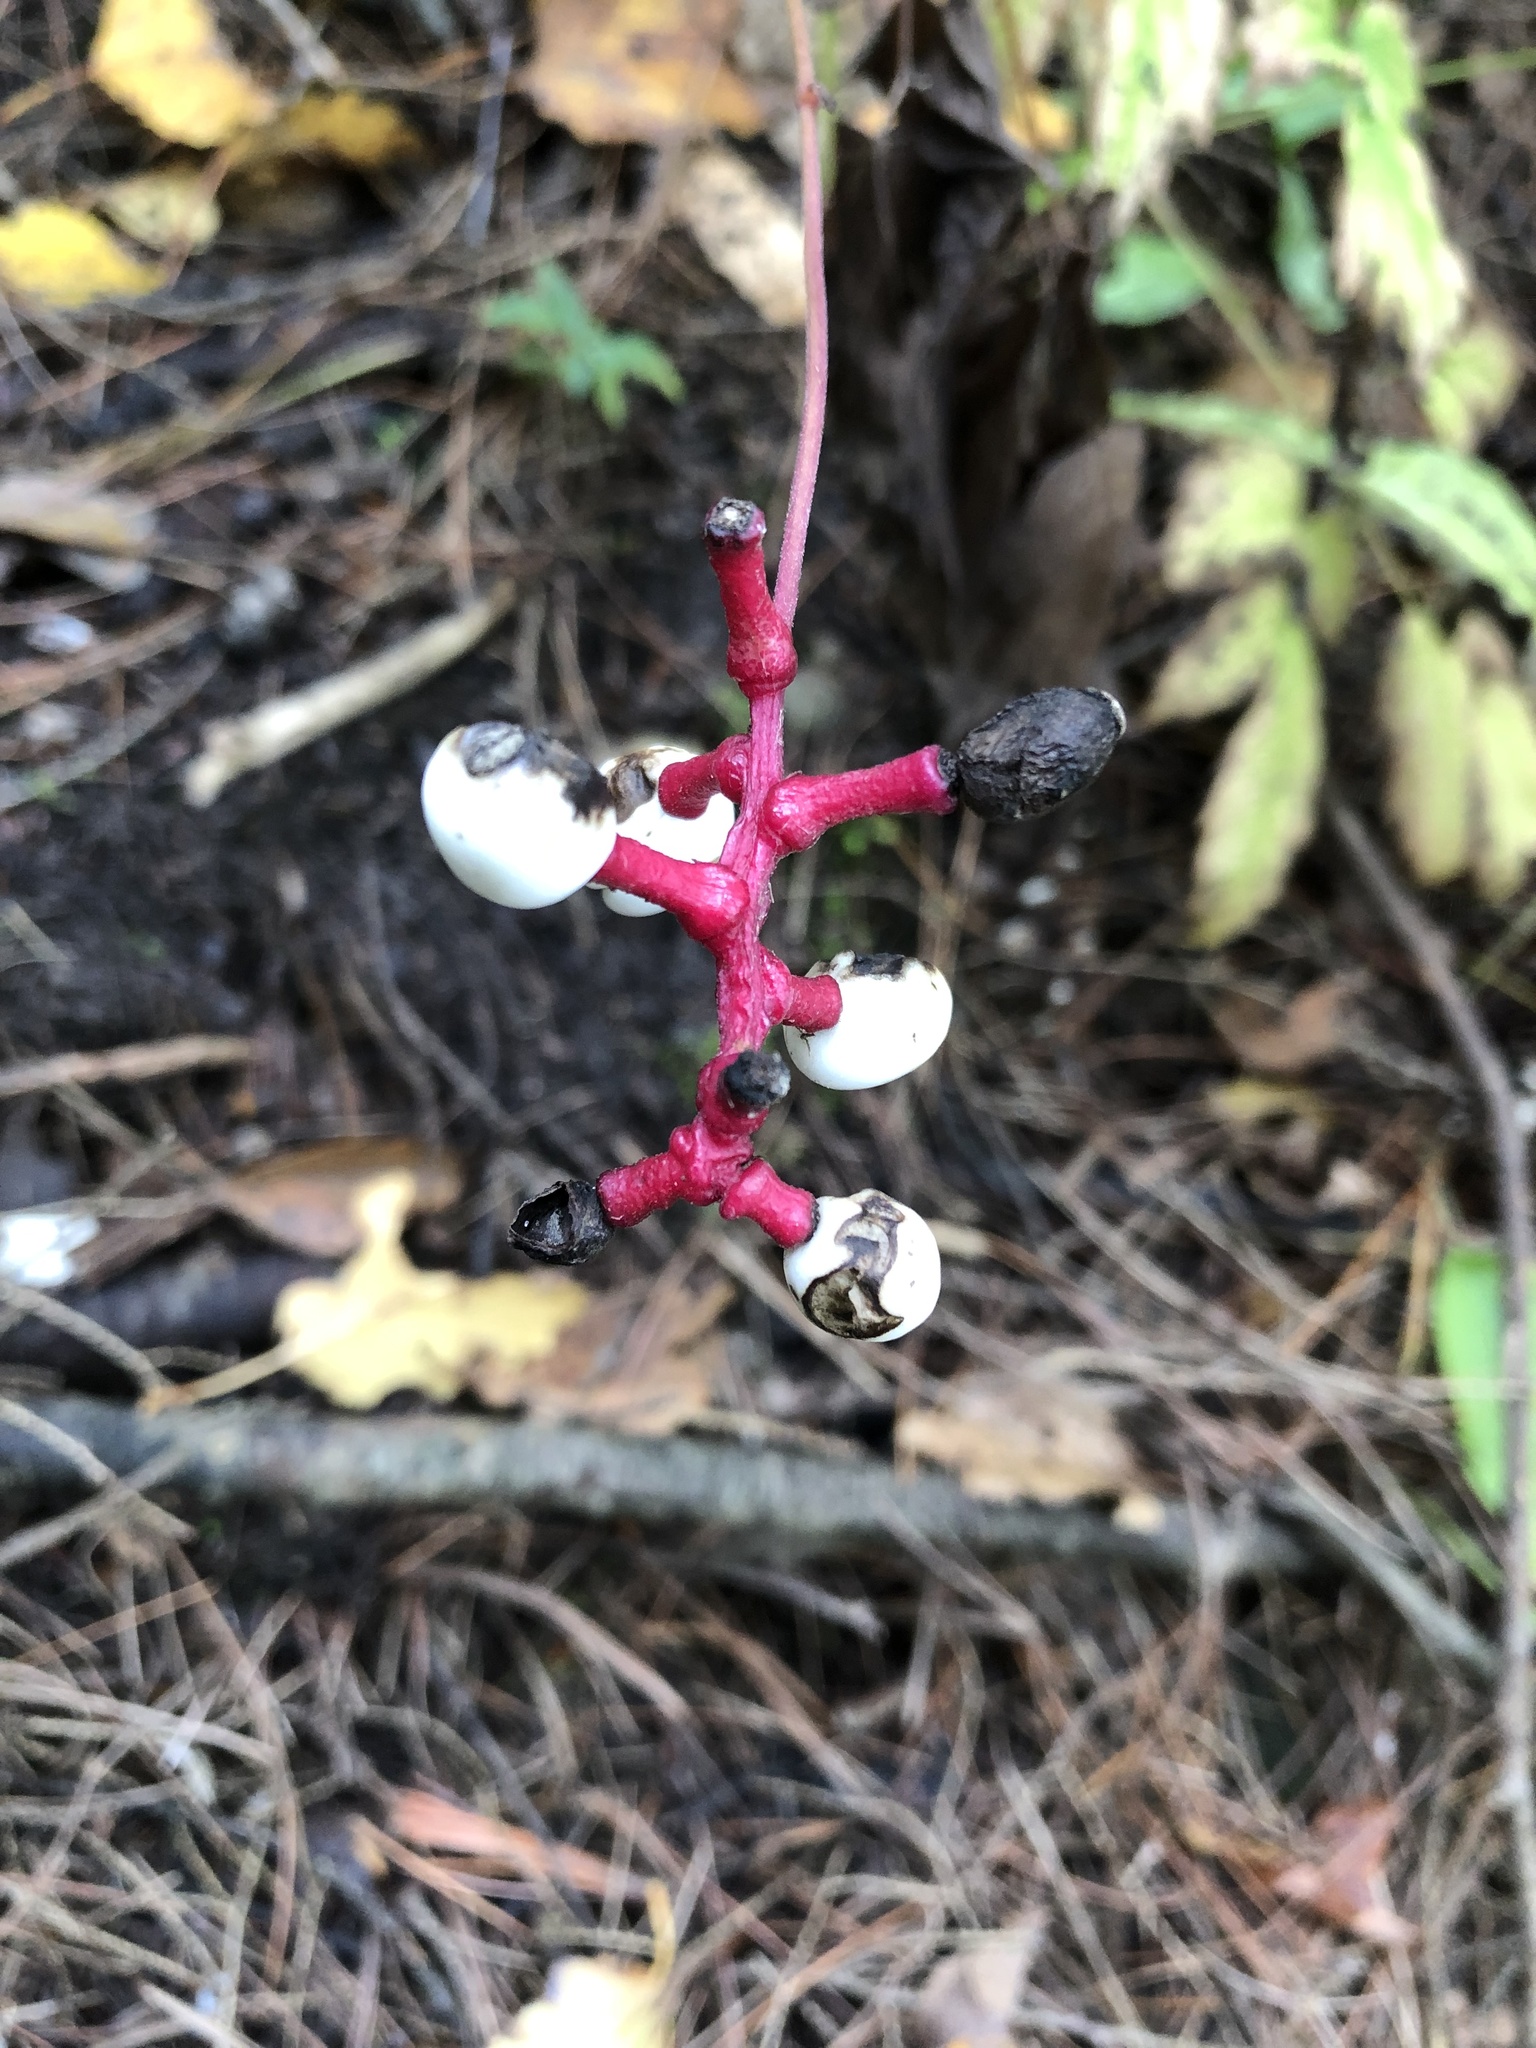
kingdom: Plantae
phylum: Tracheophyta
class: Magnoliopsida
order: Ranunculales
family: Ranunculaceae
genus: Actaea
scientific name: Actaea pachypoda
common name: Doll's-eyes
